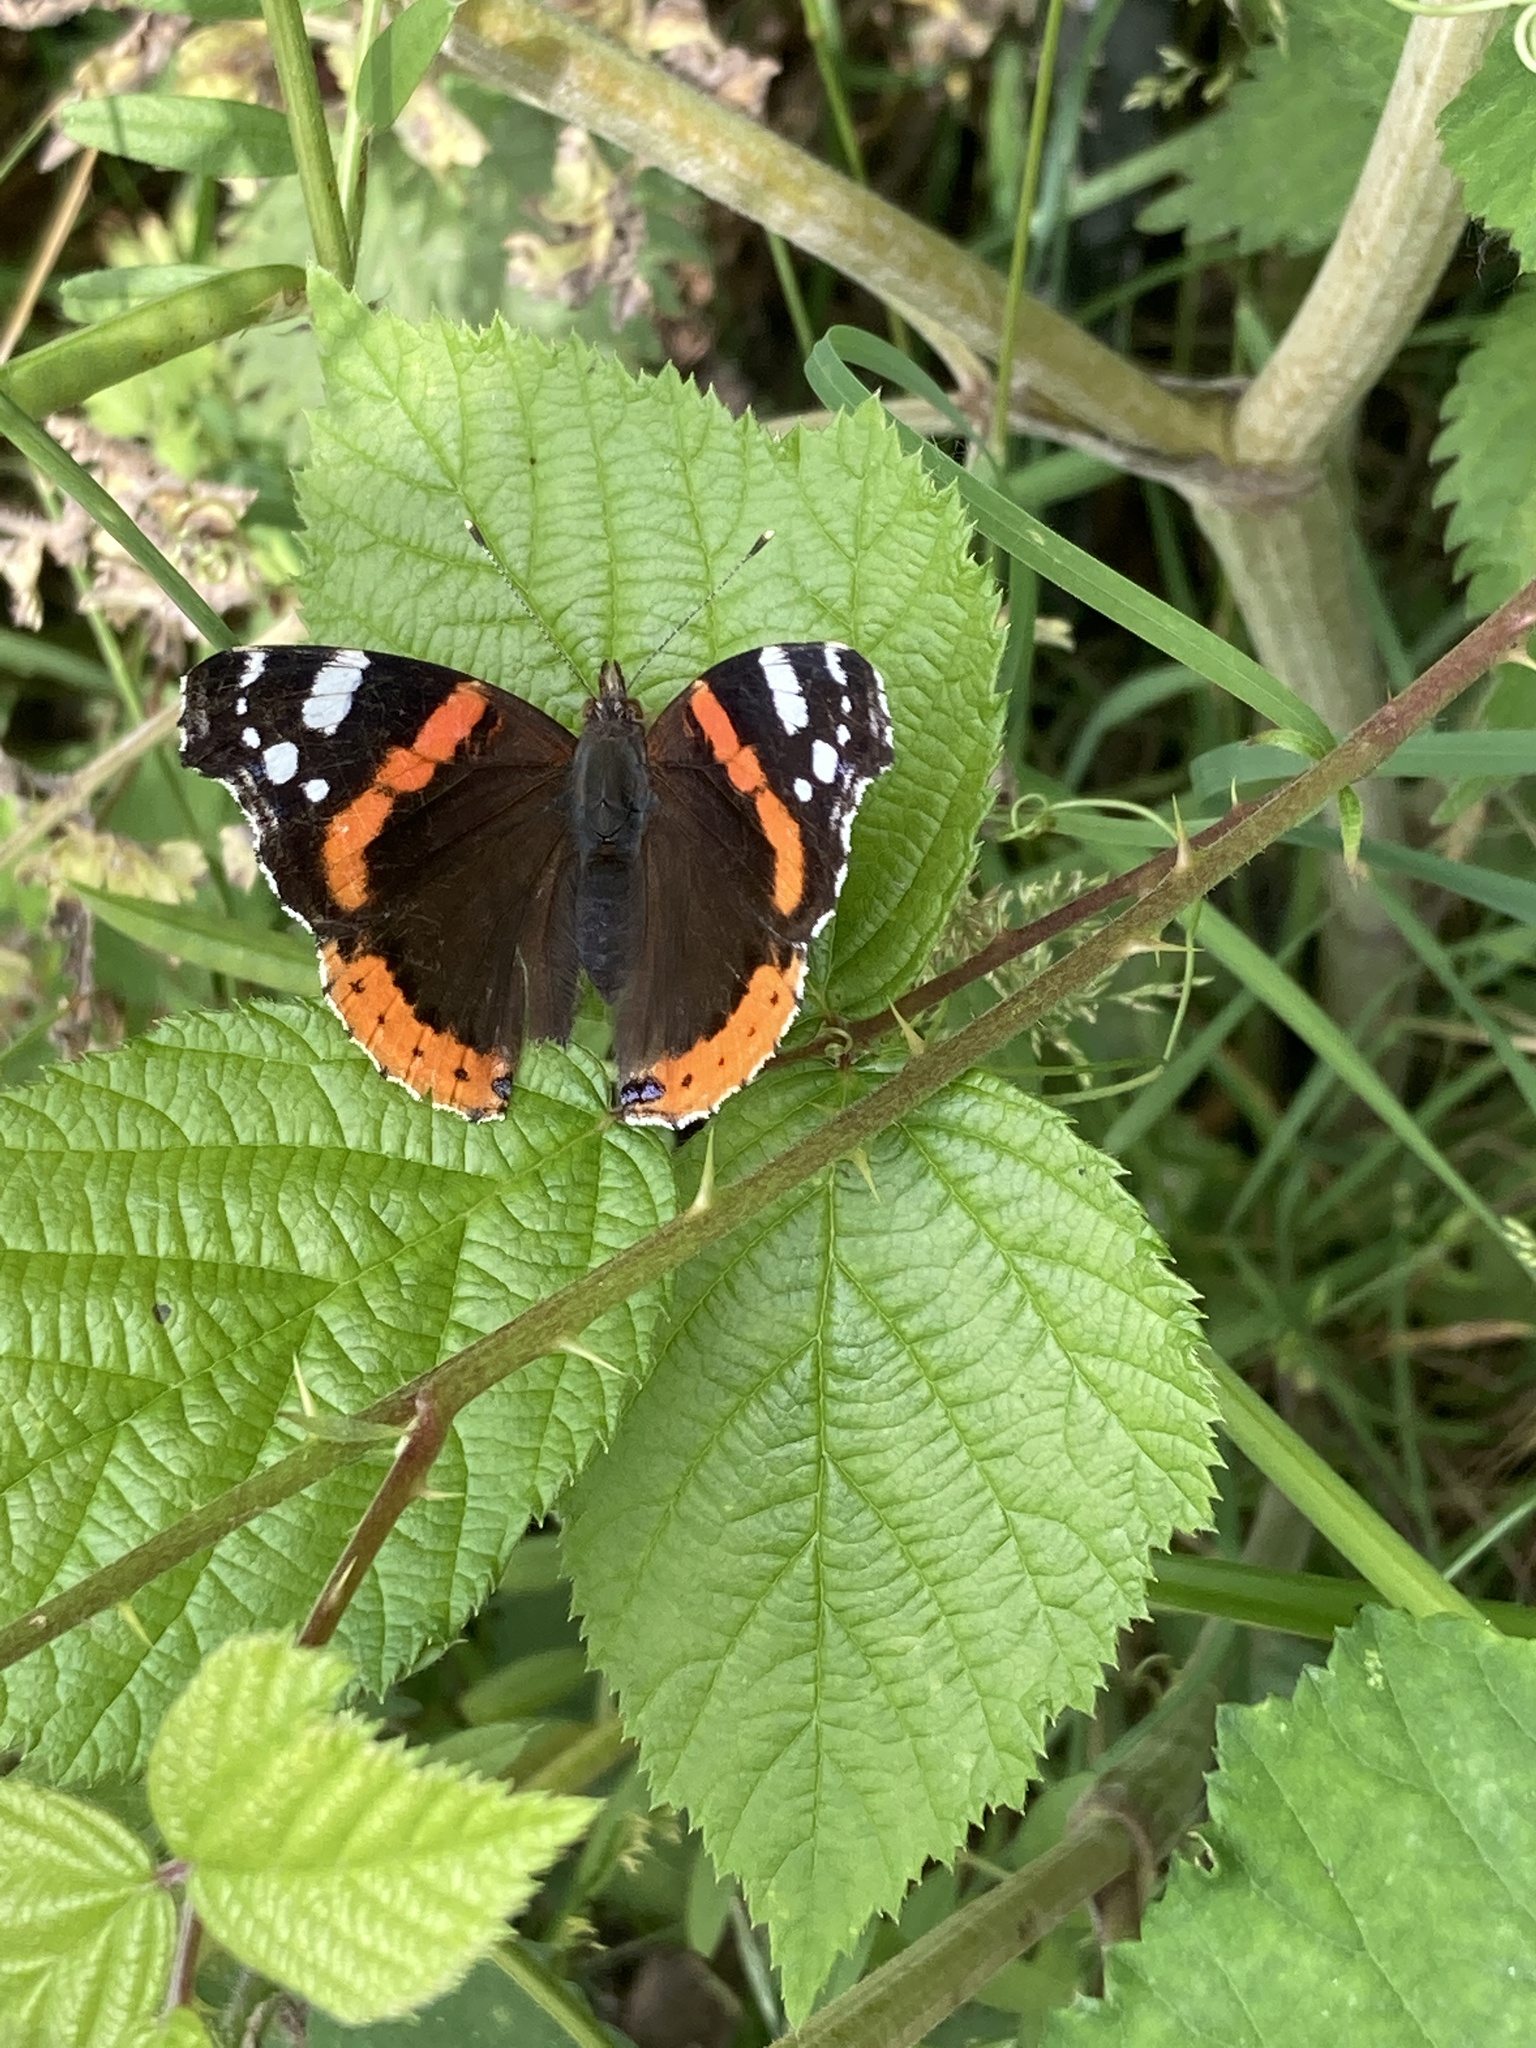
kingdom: Animalia
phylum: Arthropoda
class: Insecta
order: Lepidoptera
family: Nymphalidae
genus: Vanessa
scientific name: Vanessa atalanta
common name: Red admiral
